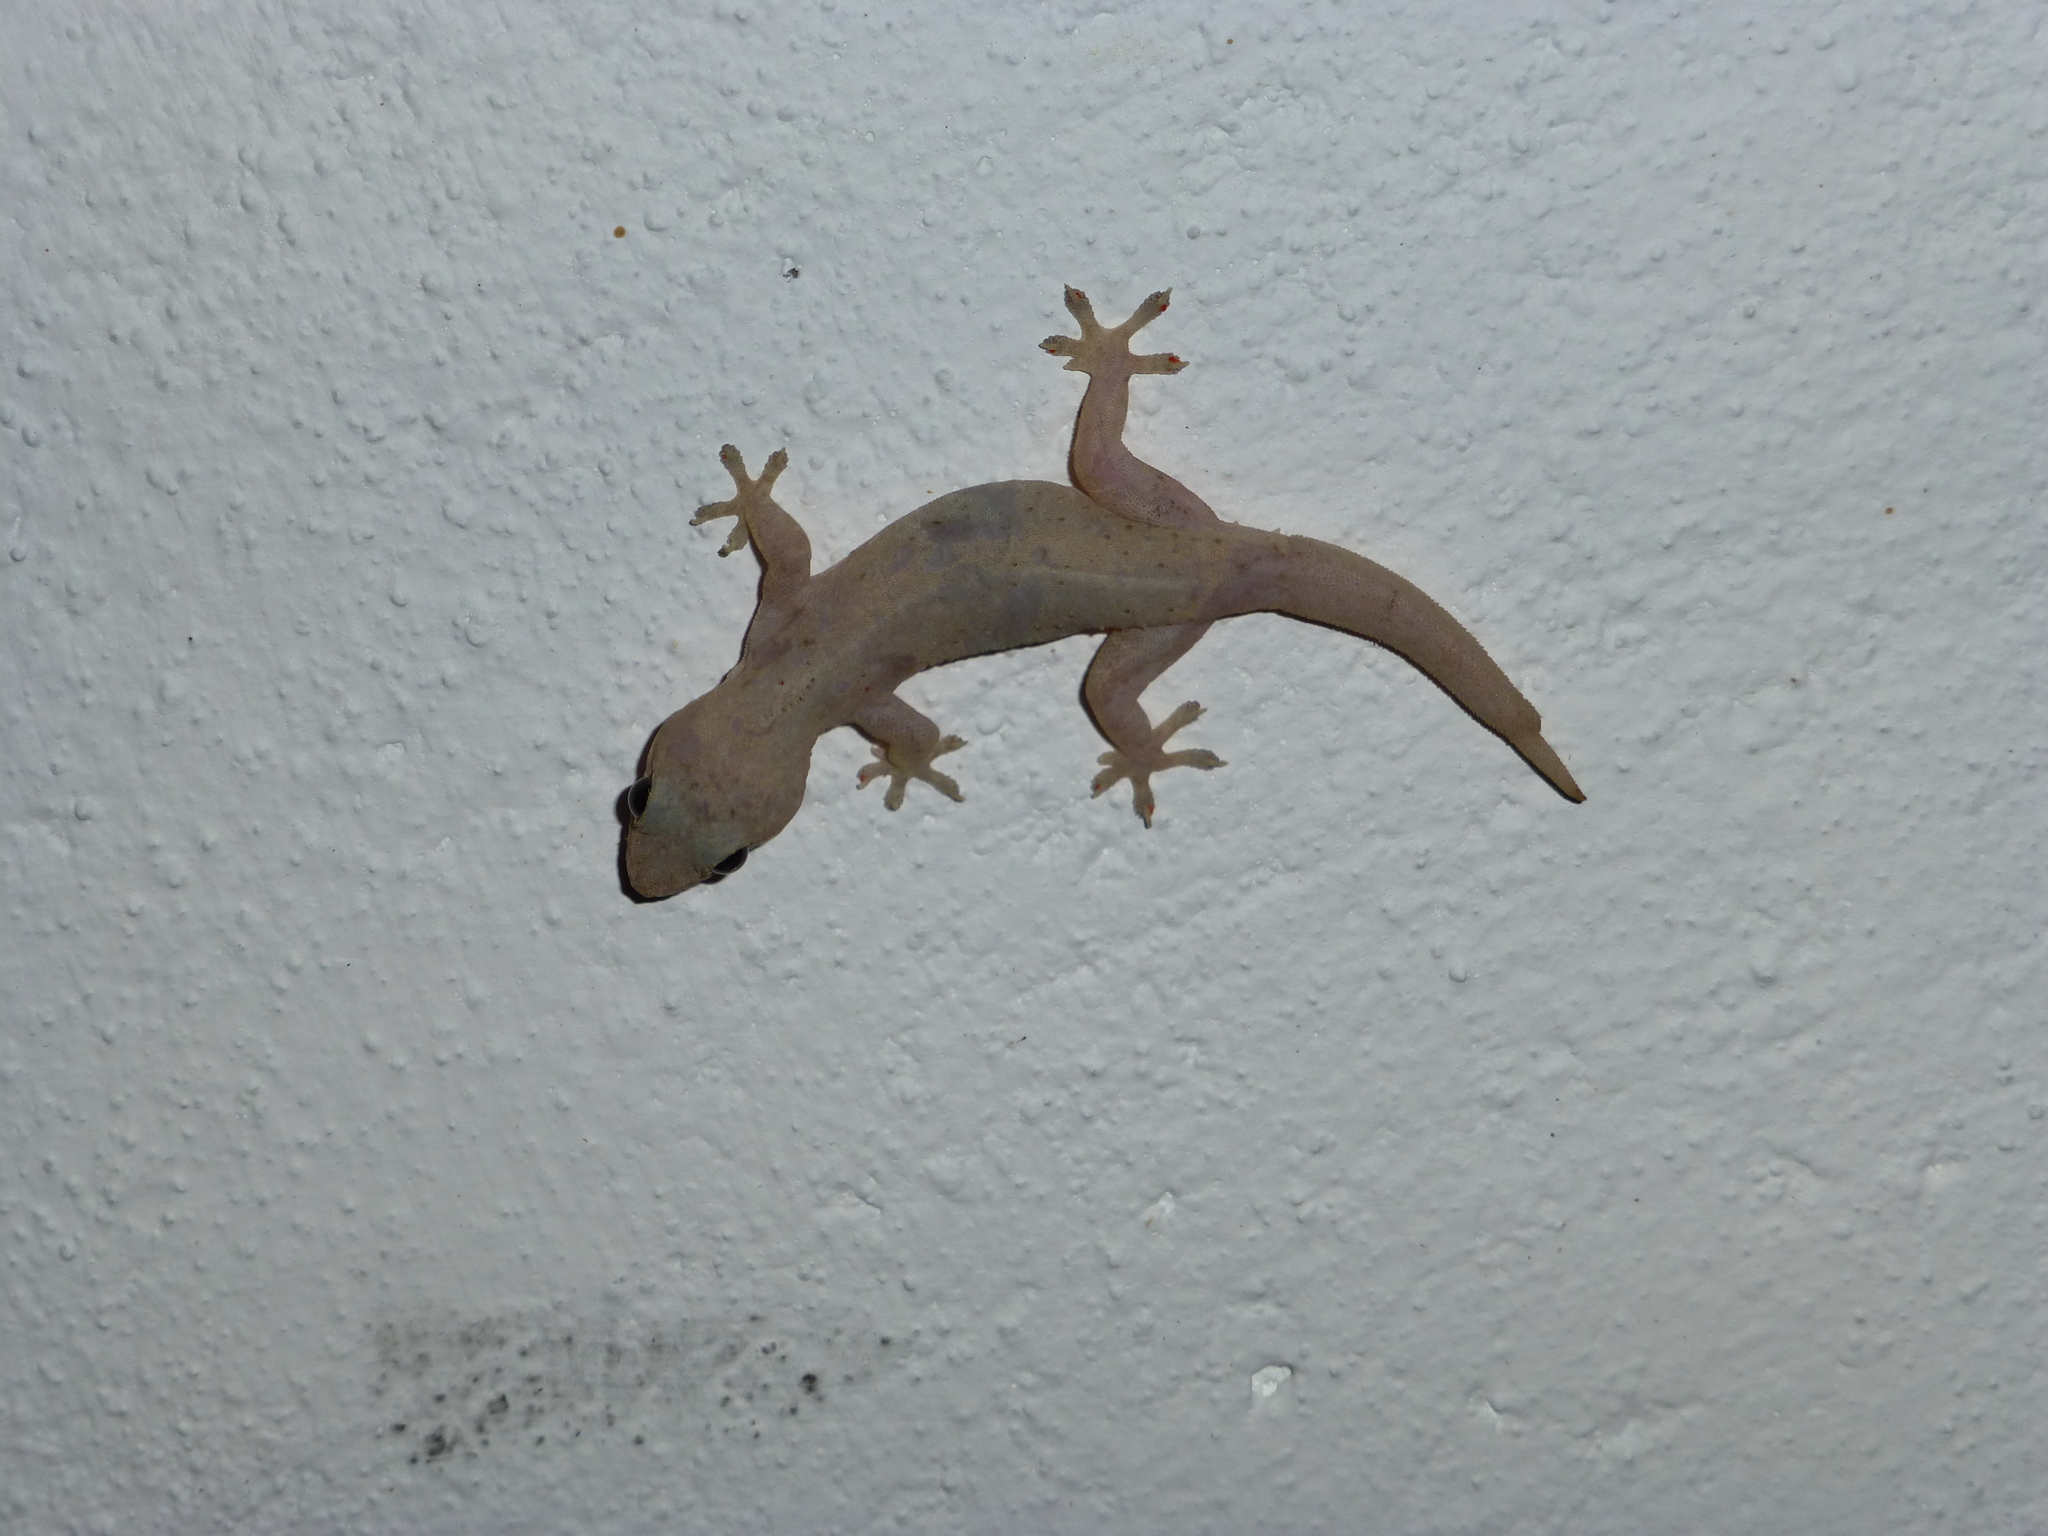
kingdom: Animalia
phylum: Chordata
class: Squamata
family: Gekkonidae
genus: Hemidactylus
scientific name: Hemidactylus frenatus
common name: Common house gecko
